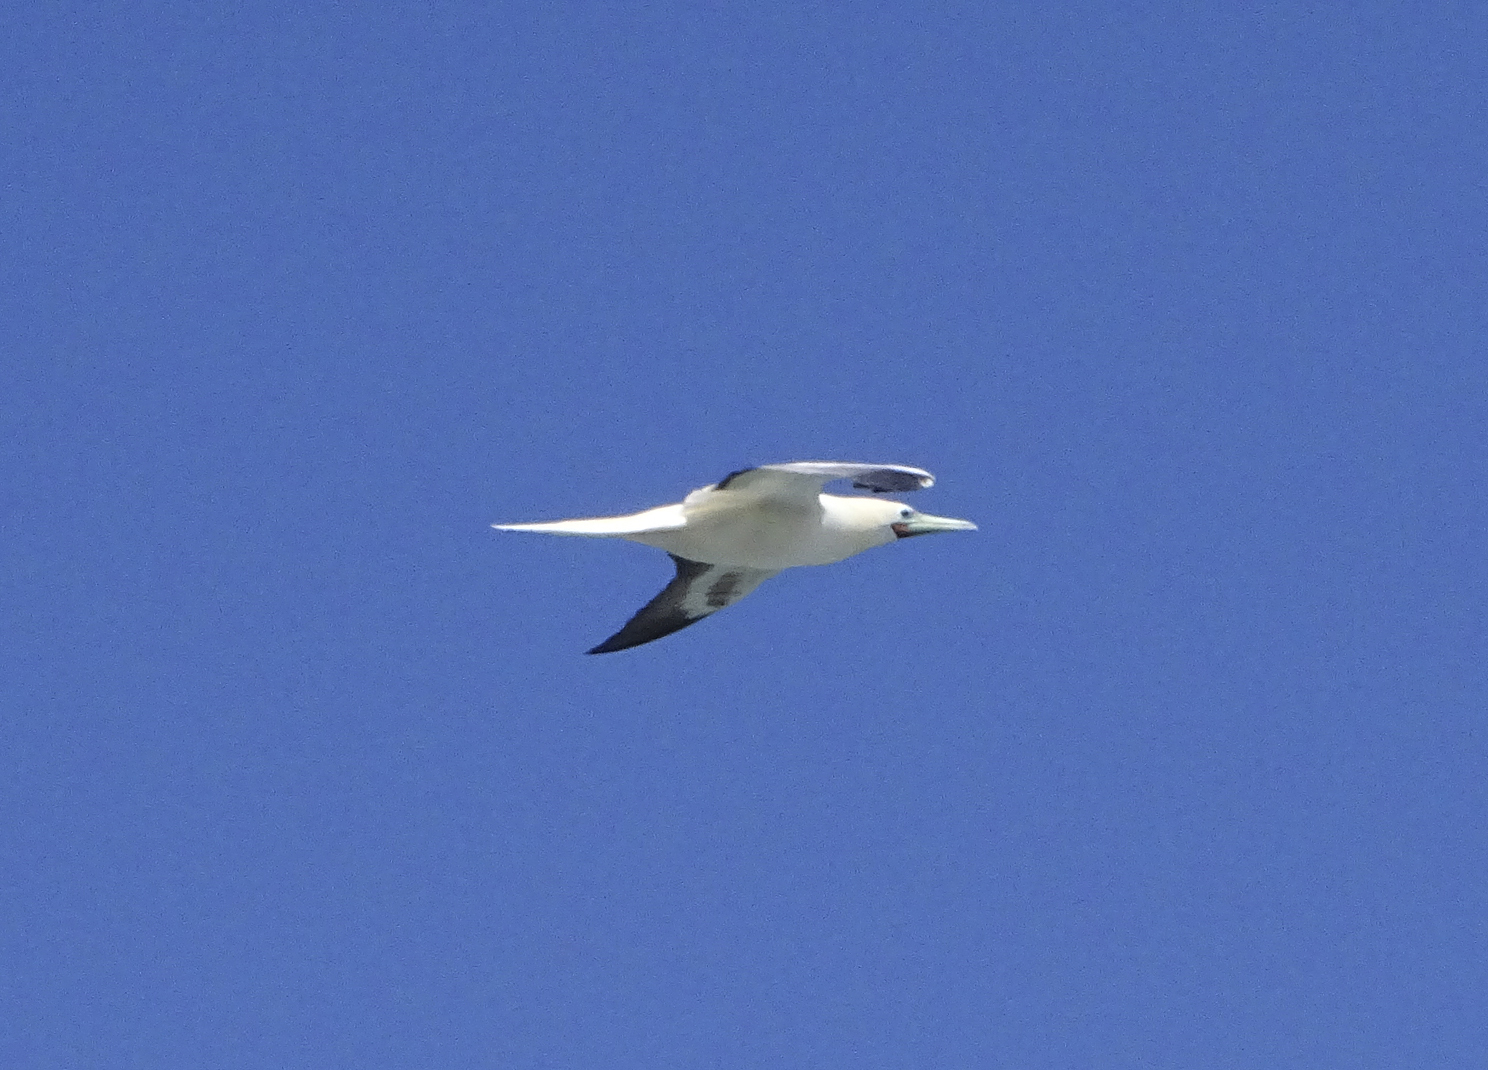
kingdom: Animalia
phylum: Chordata
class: Aves
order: Suliformes
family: Sulidae
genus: Sula
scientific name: Sula sula
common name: Red-footed booby
